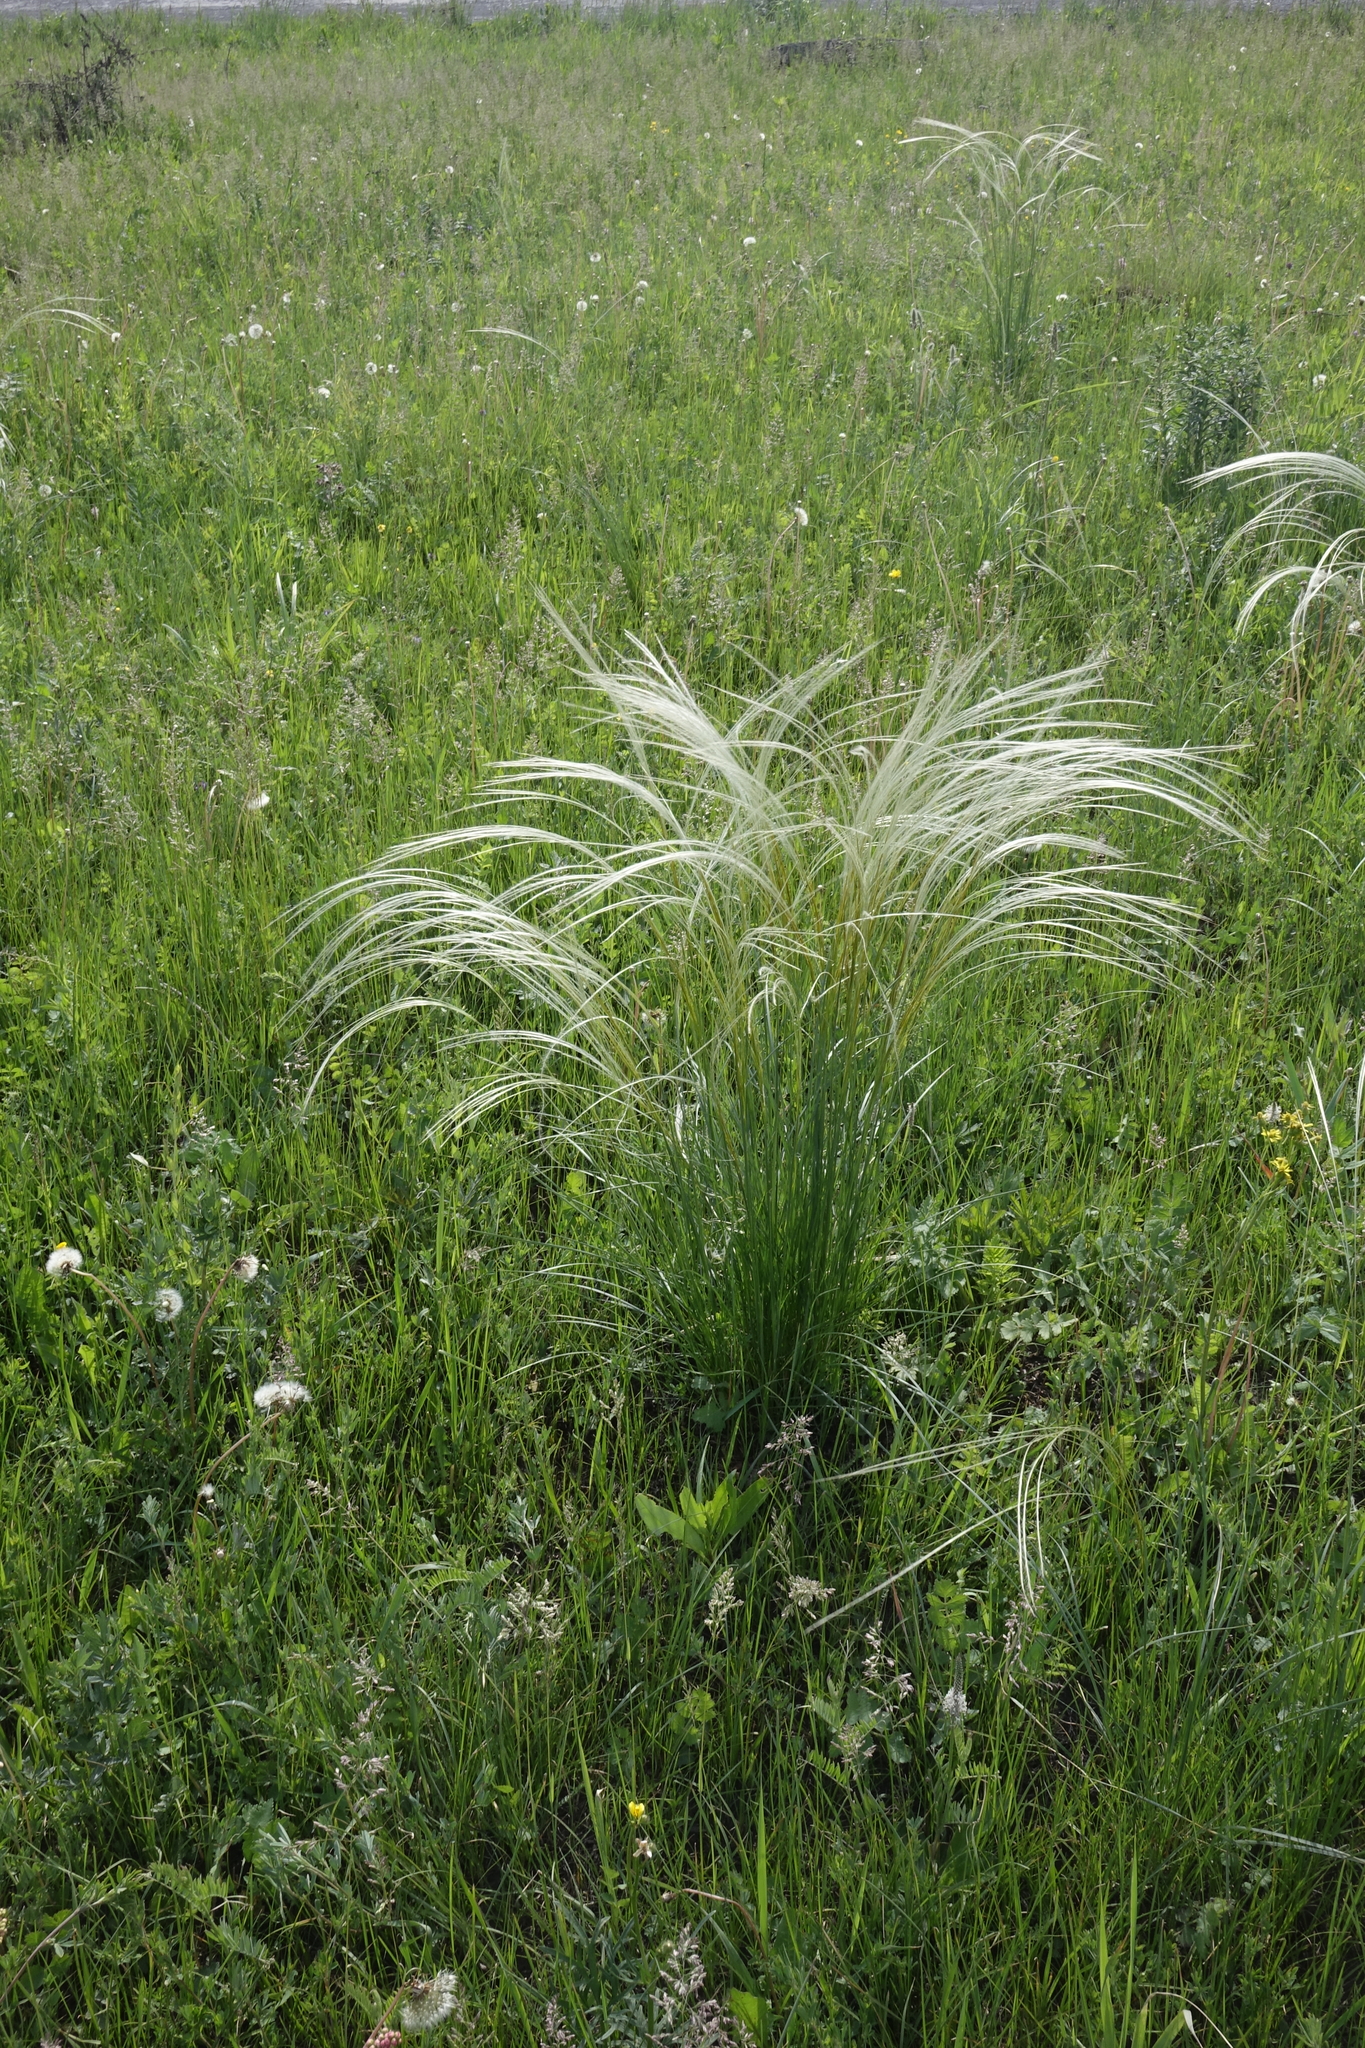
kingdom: Plantae
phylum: Tracheophyta
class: Liliopsida
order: Poales
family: Poaceae
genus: Stipa
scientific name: Stipa pennata
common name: European feather grass
